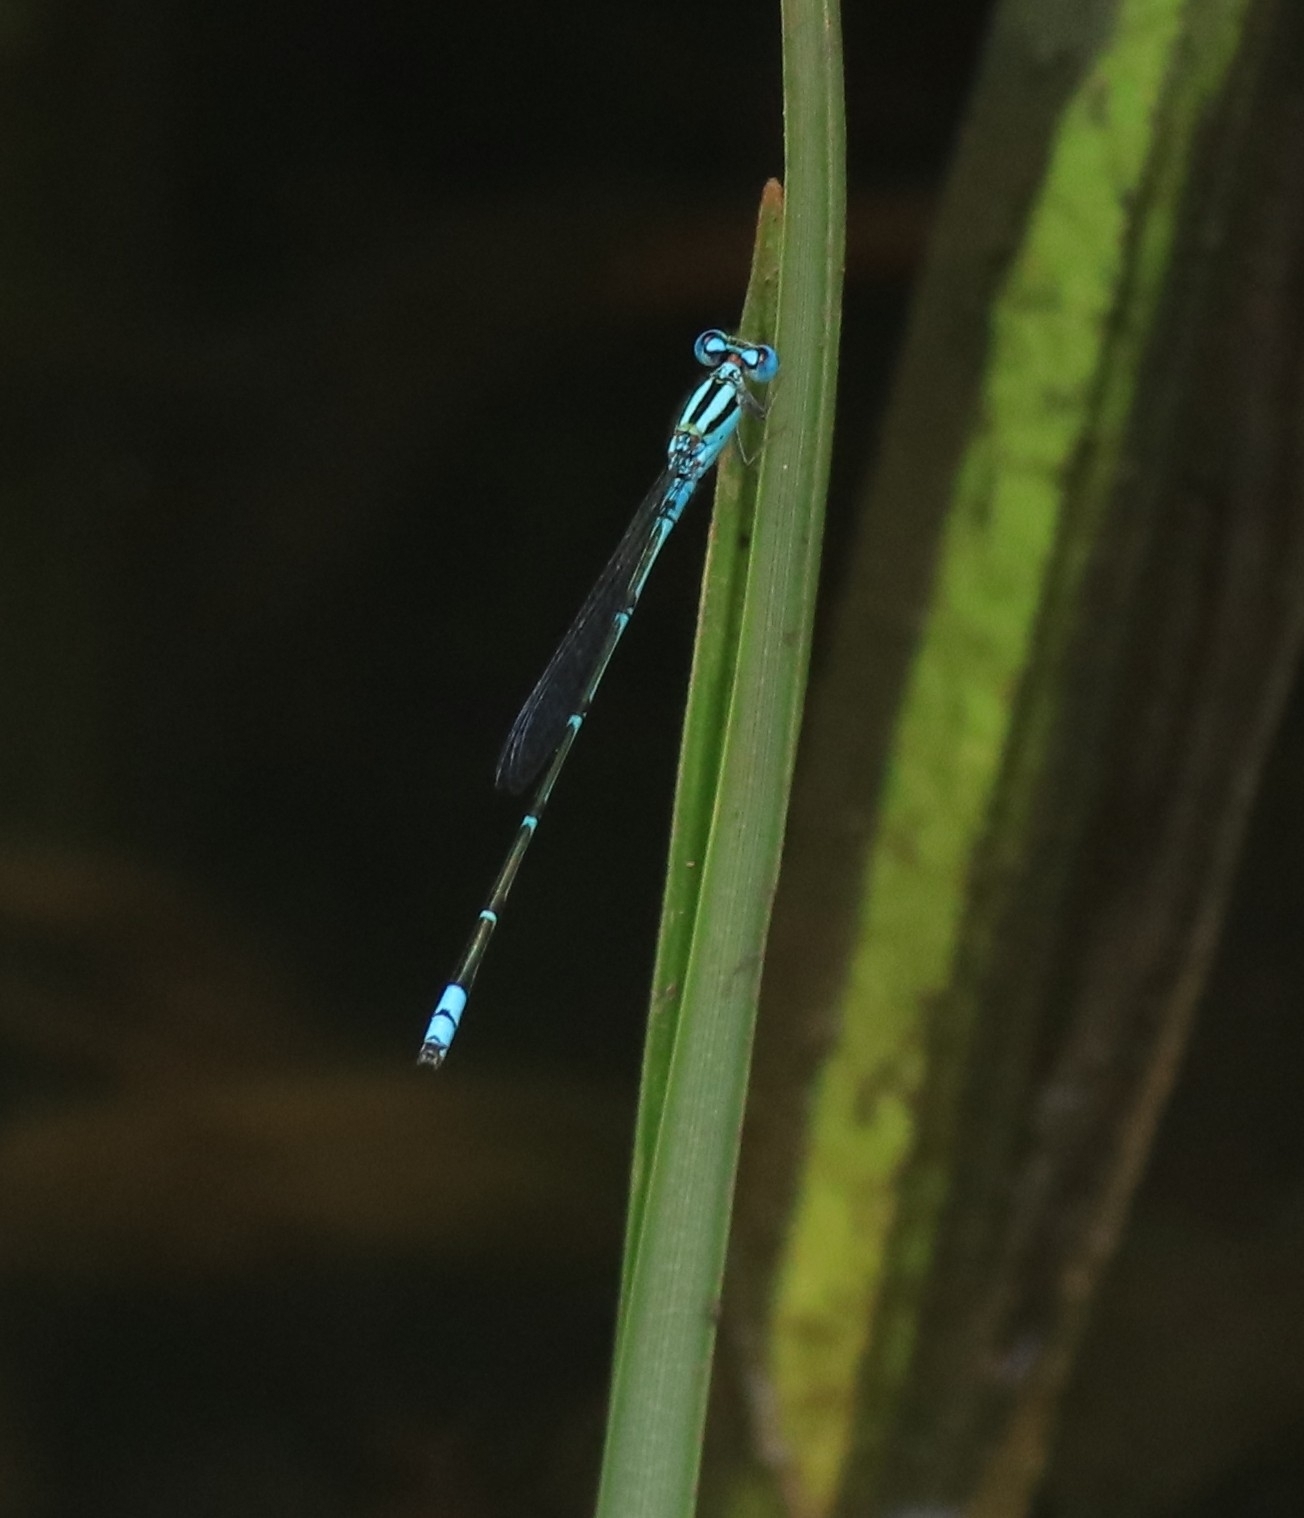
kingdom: Animalia
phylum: Arthropoda
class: Insecta
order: Odonata
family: Coenagrionidae
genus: Pseudagrion
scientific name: Pseudagrion microcephalum
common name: Blue riverdamsel
